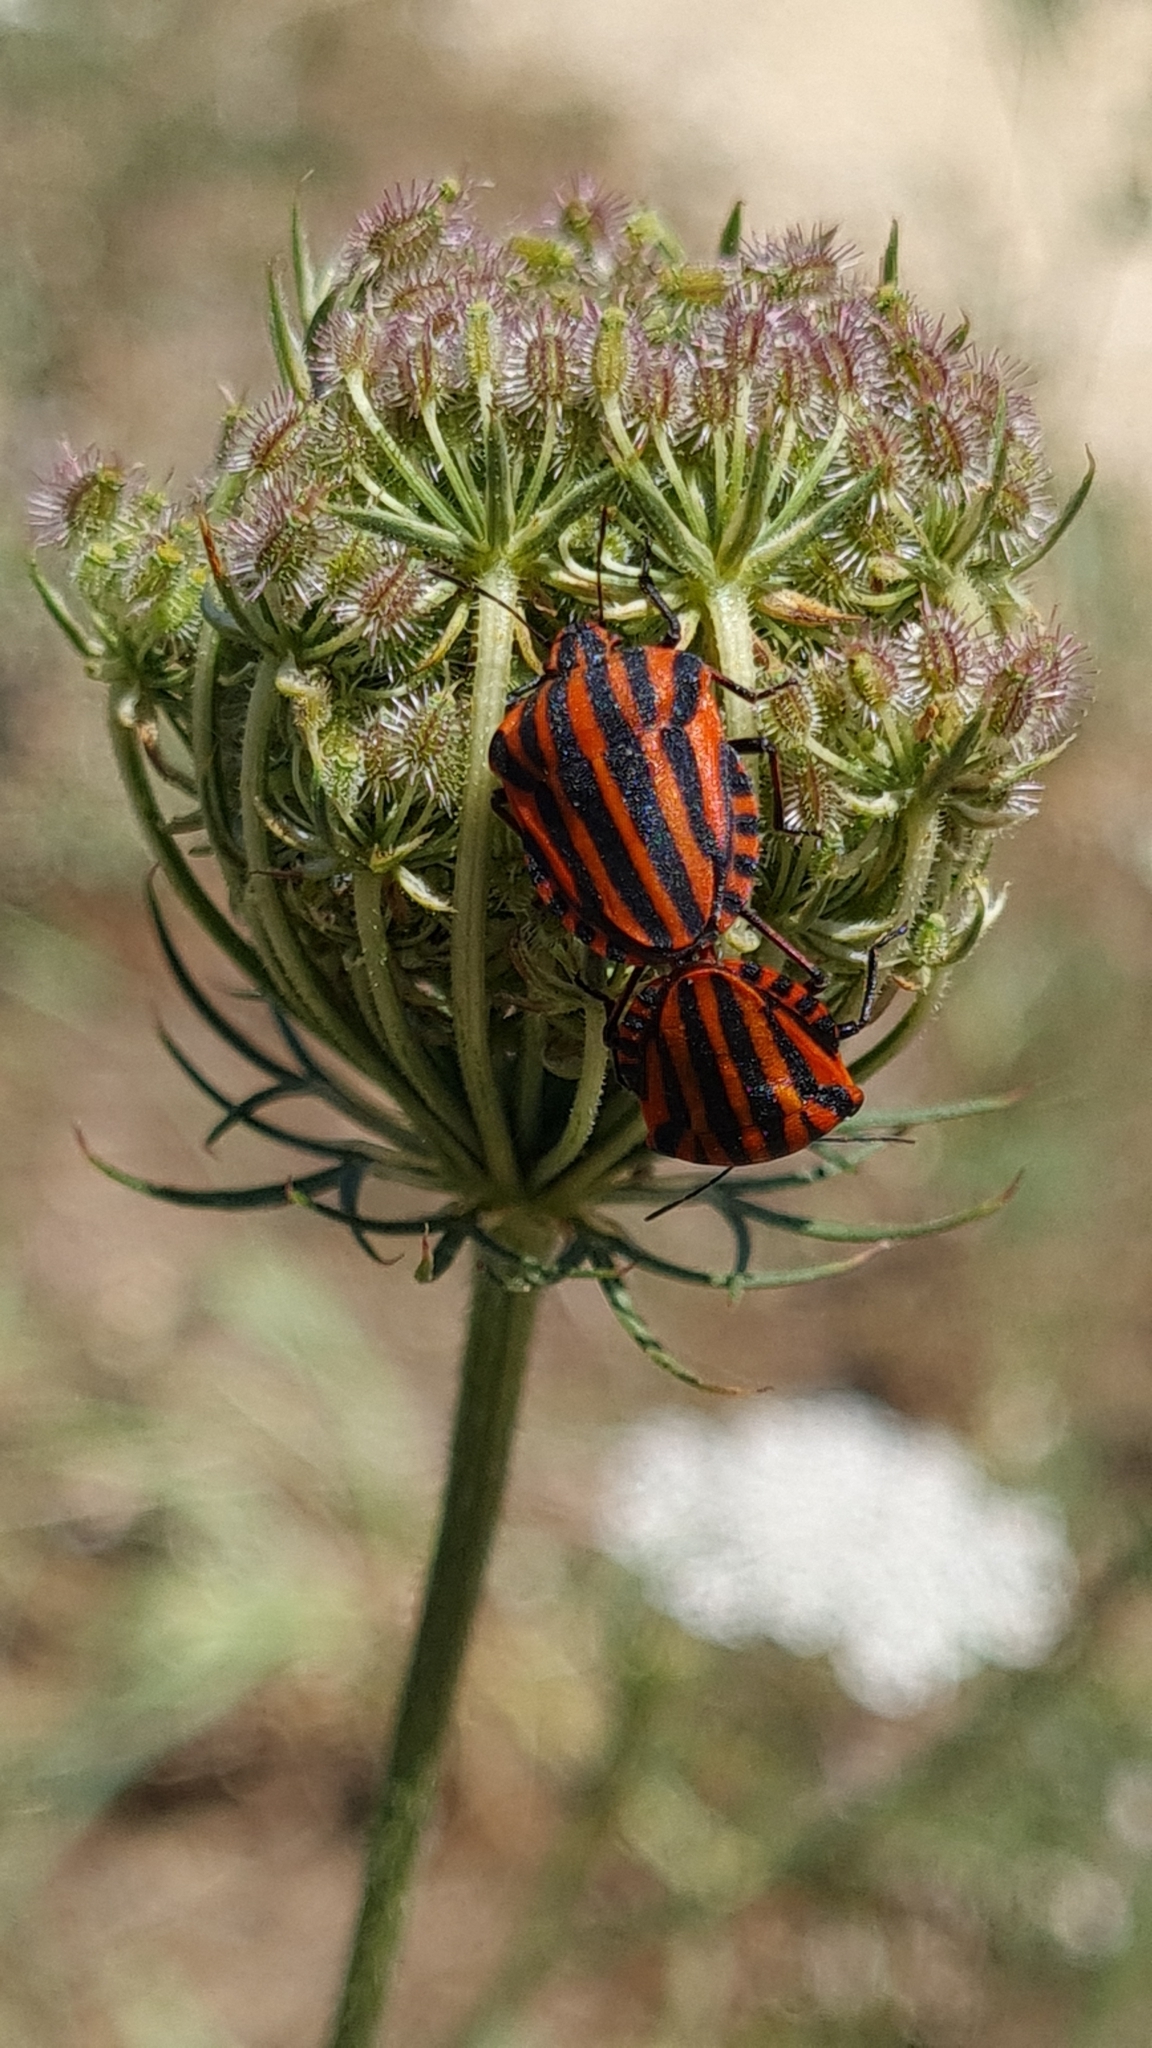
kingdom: Animalia
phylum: Arthropoda
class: Insecta
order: Hemiptera
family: Pentatomidae
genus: Graphosoma
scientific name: Graphosoma italicum
